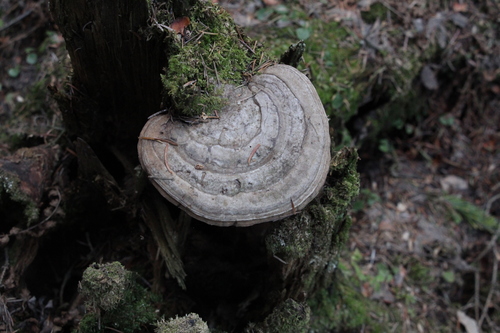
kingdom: Fungi
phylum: Basidiomycota
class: Agaricomycetes
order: Polyporales
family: Polyporaceae
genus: Ganoderma
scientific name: Ganoderma applanatum
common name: Artist's bracket
